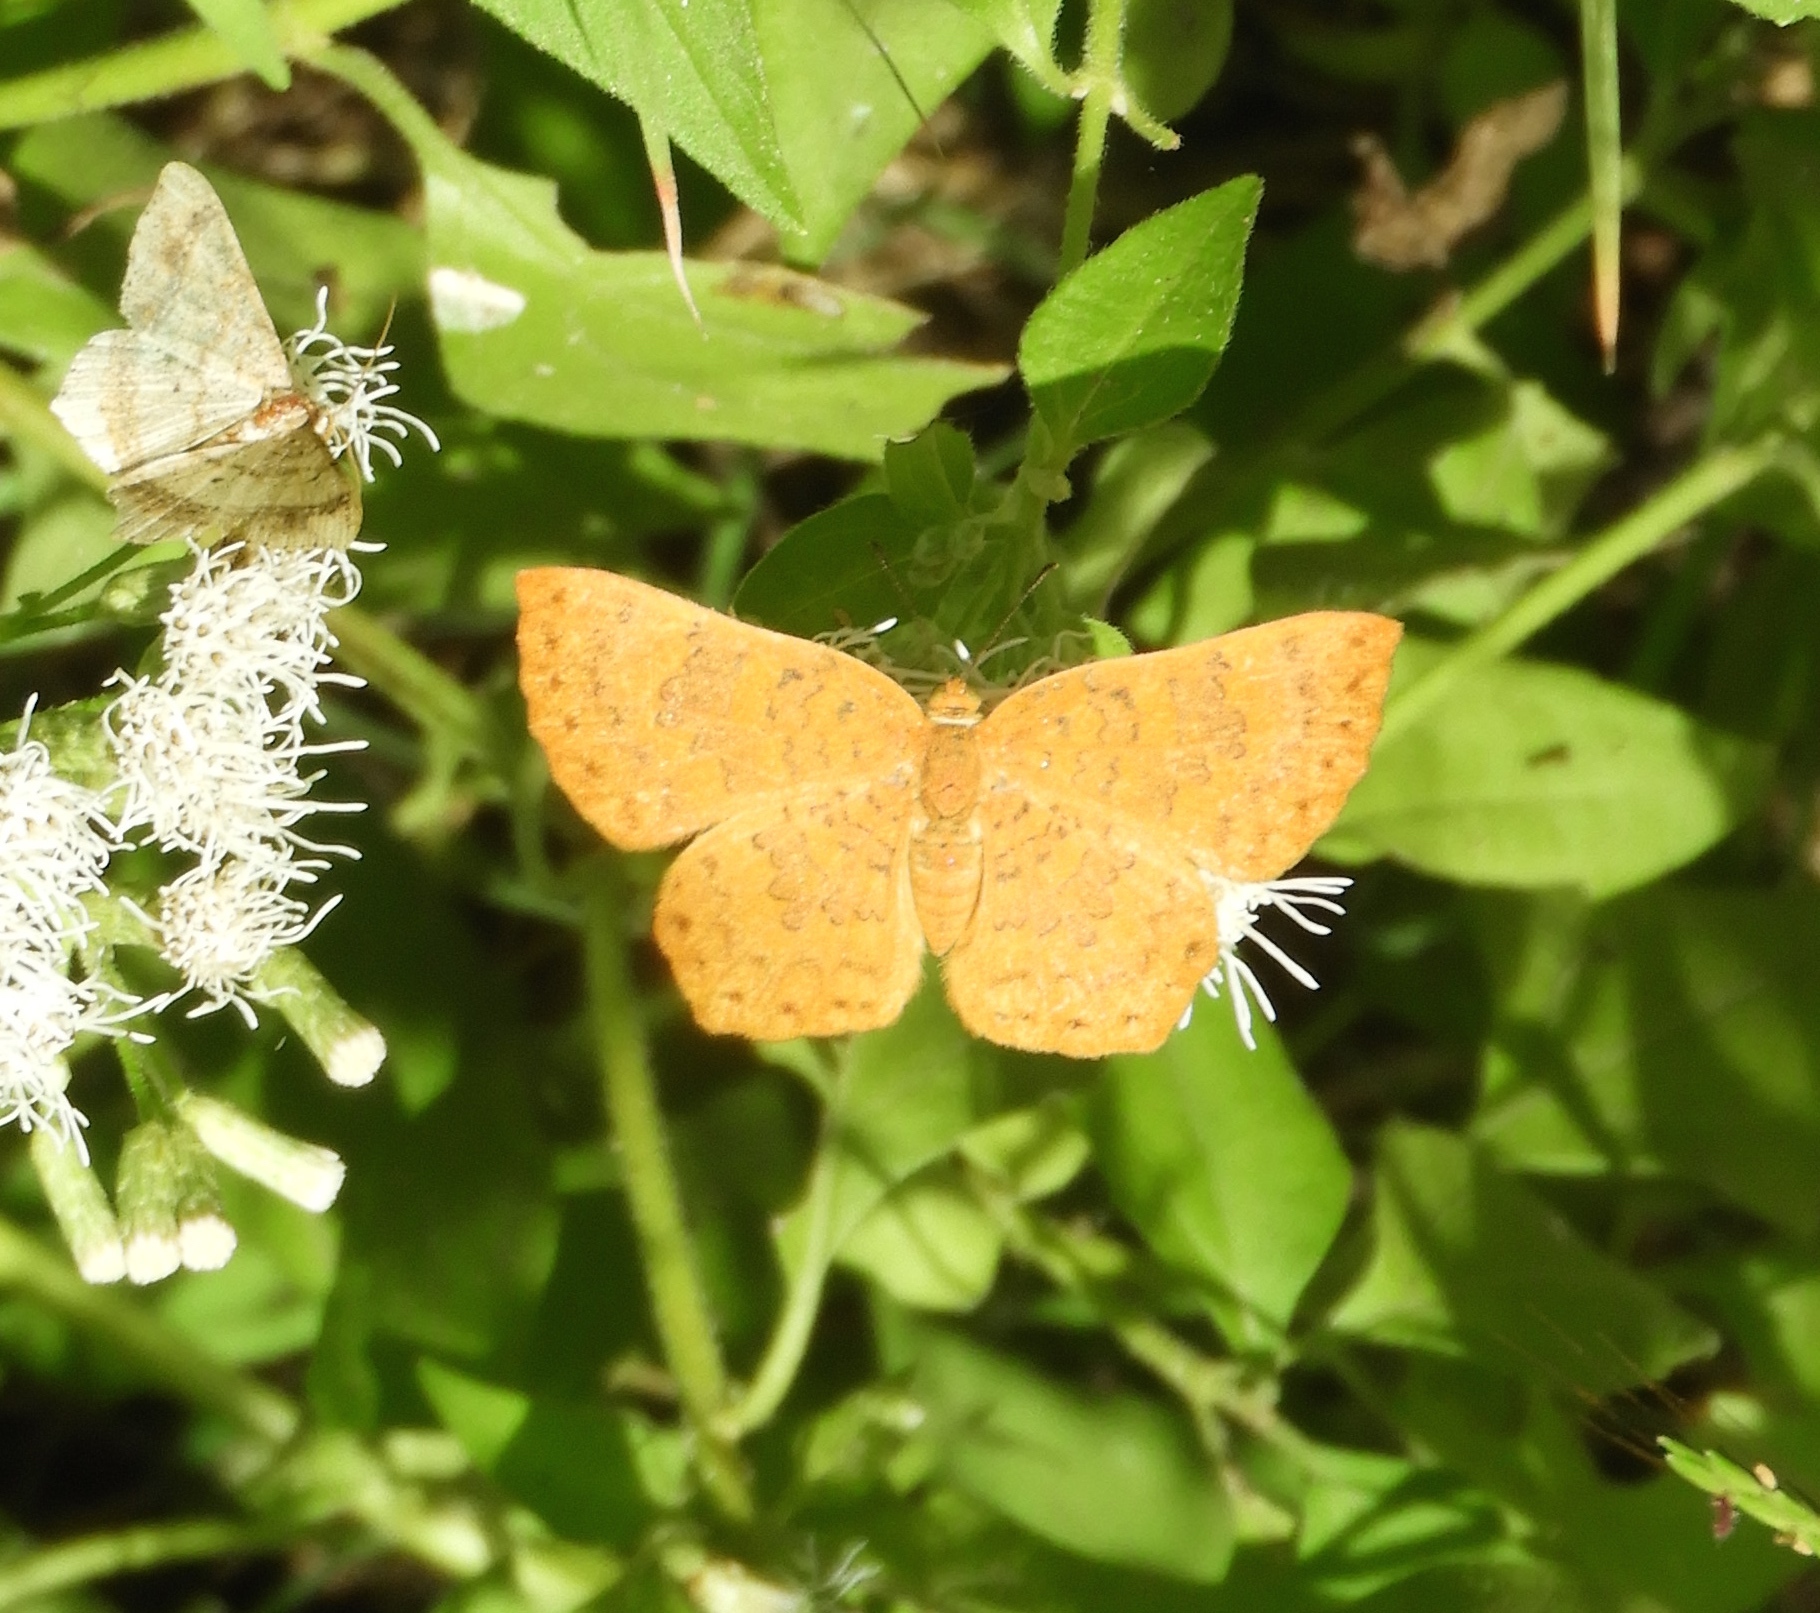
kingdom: Animalia
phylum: Arthropoda
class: Insecta
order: Lepidoptera
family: Lycaenidae
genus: Emesis
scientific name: Emesis mandana
